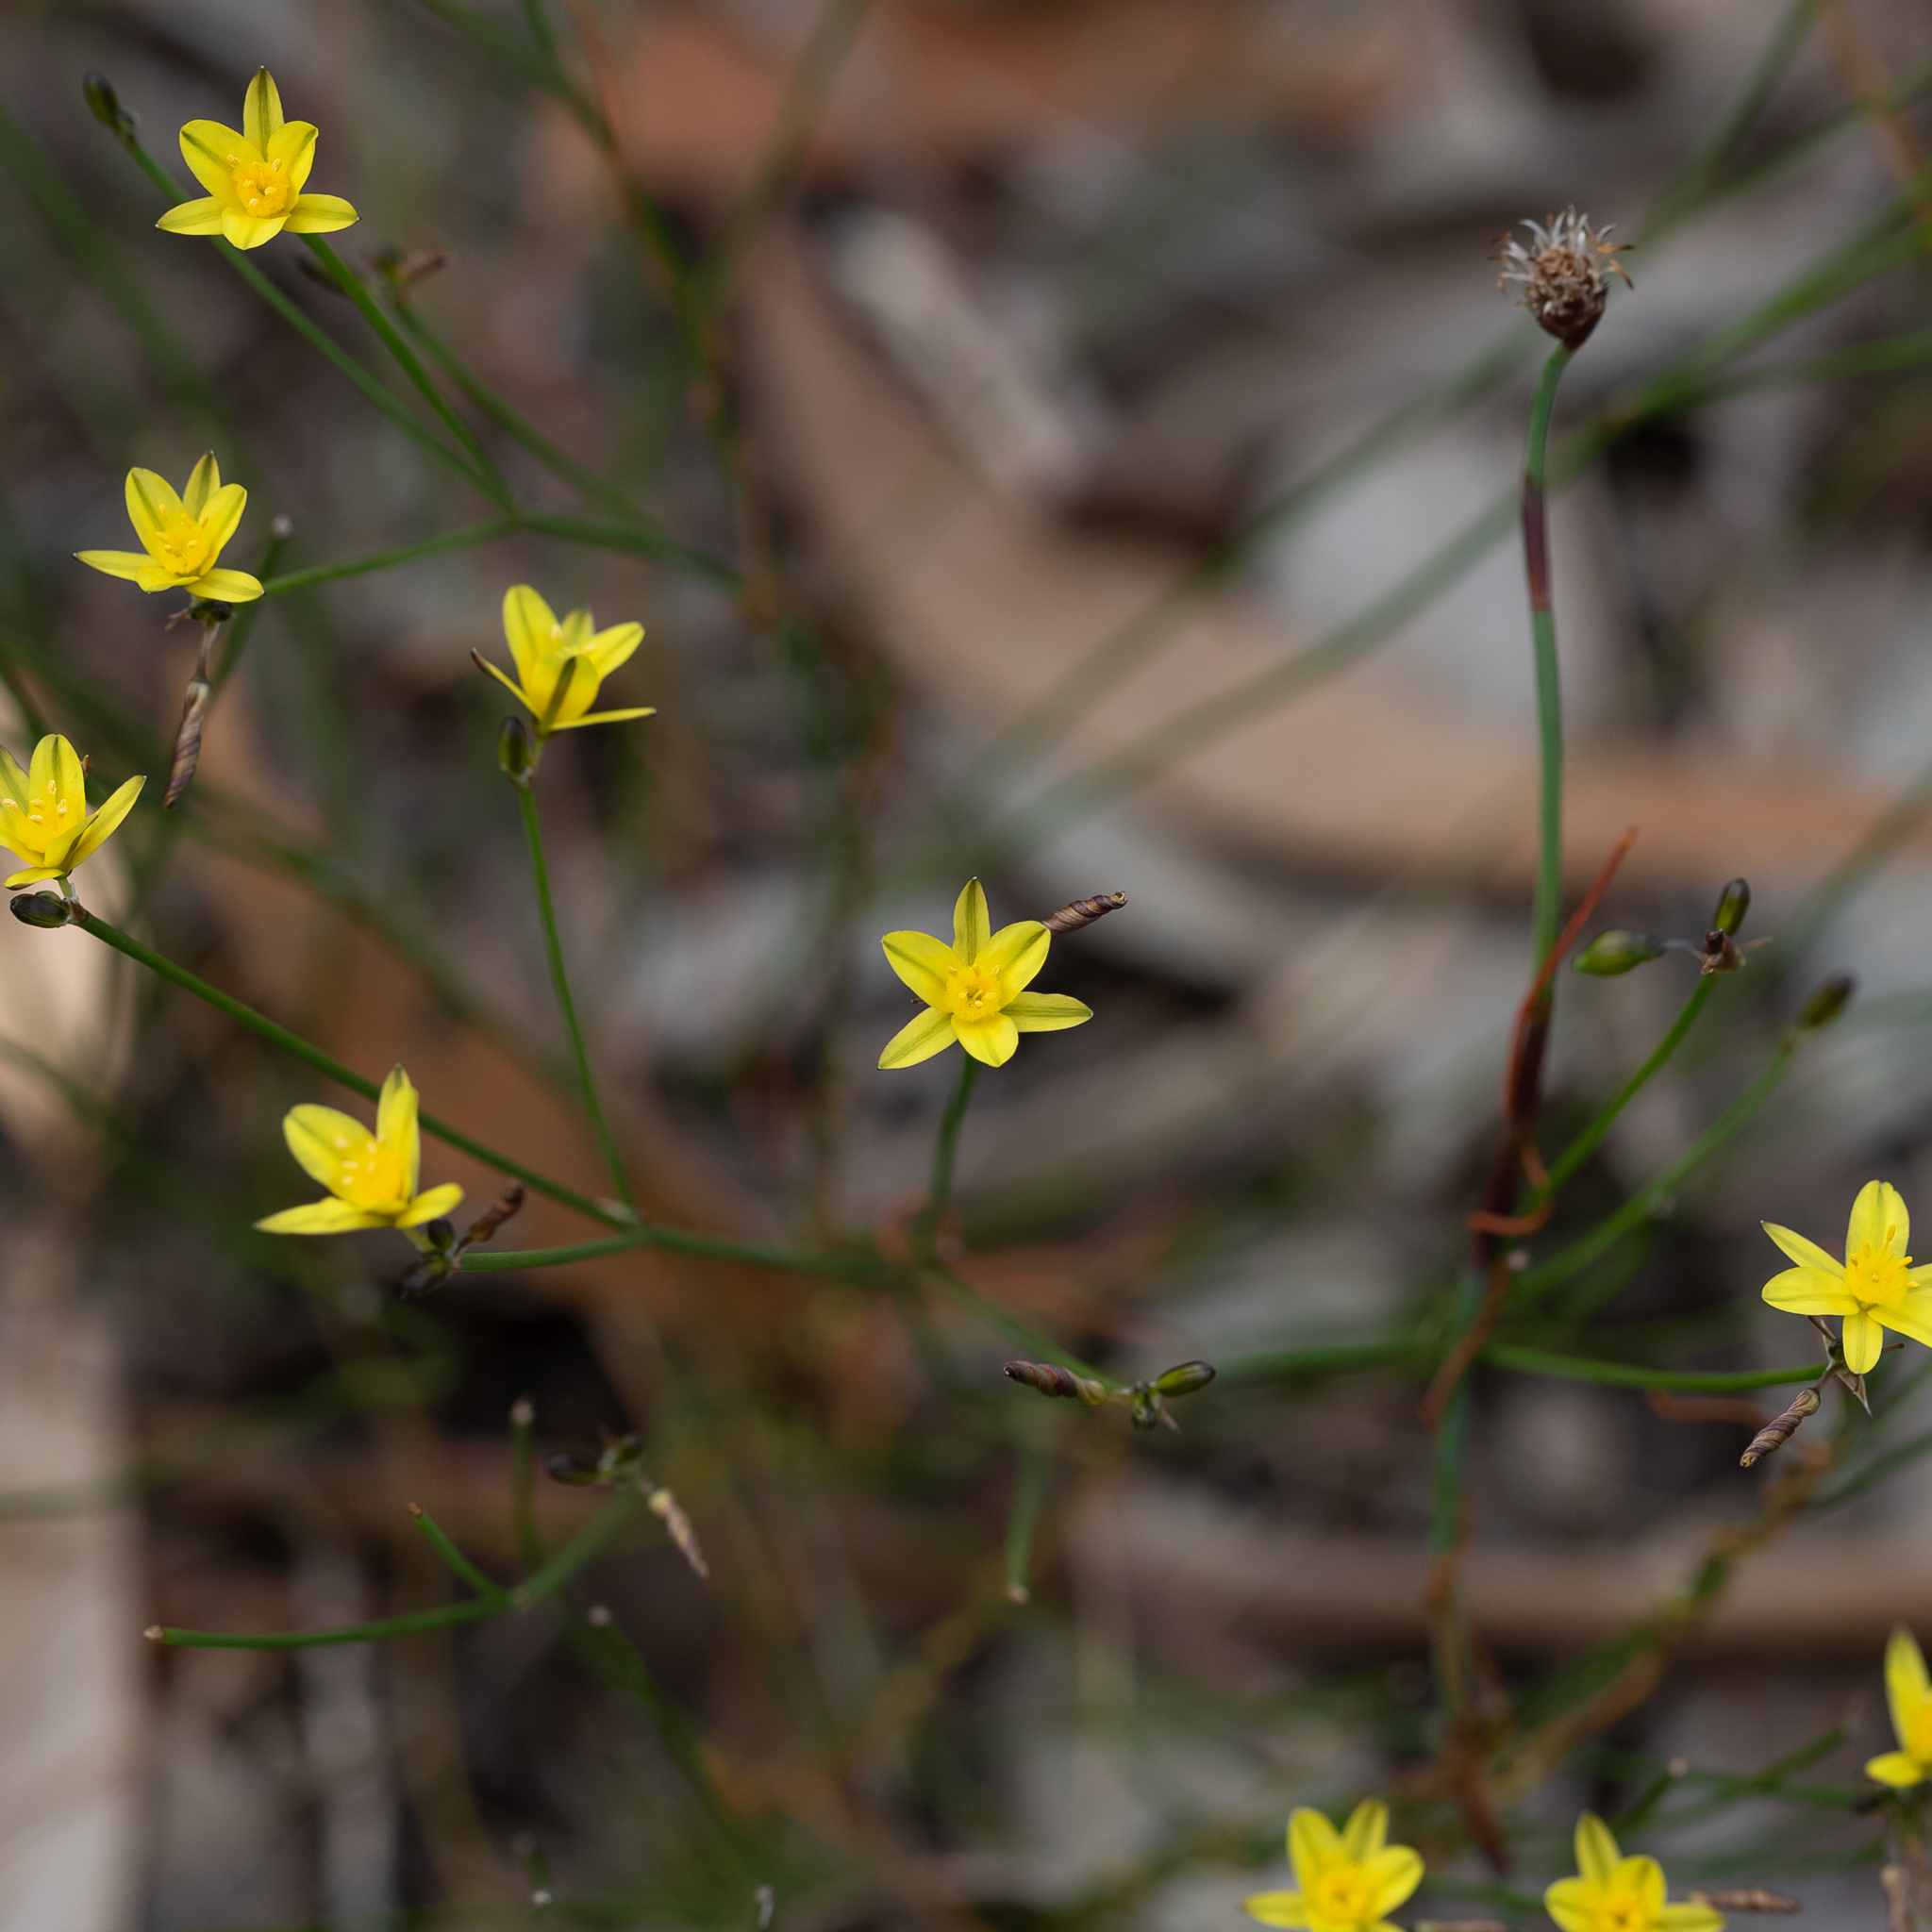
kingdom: Plantae
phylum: Tracheophyta
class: Liliopsida
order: Asparagales
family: Asphodelaceae
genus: Tricoryne
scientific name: Tricoryne tenella
